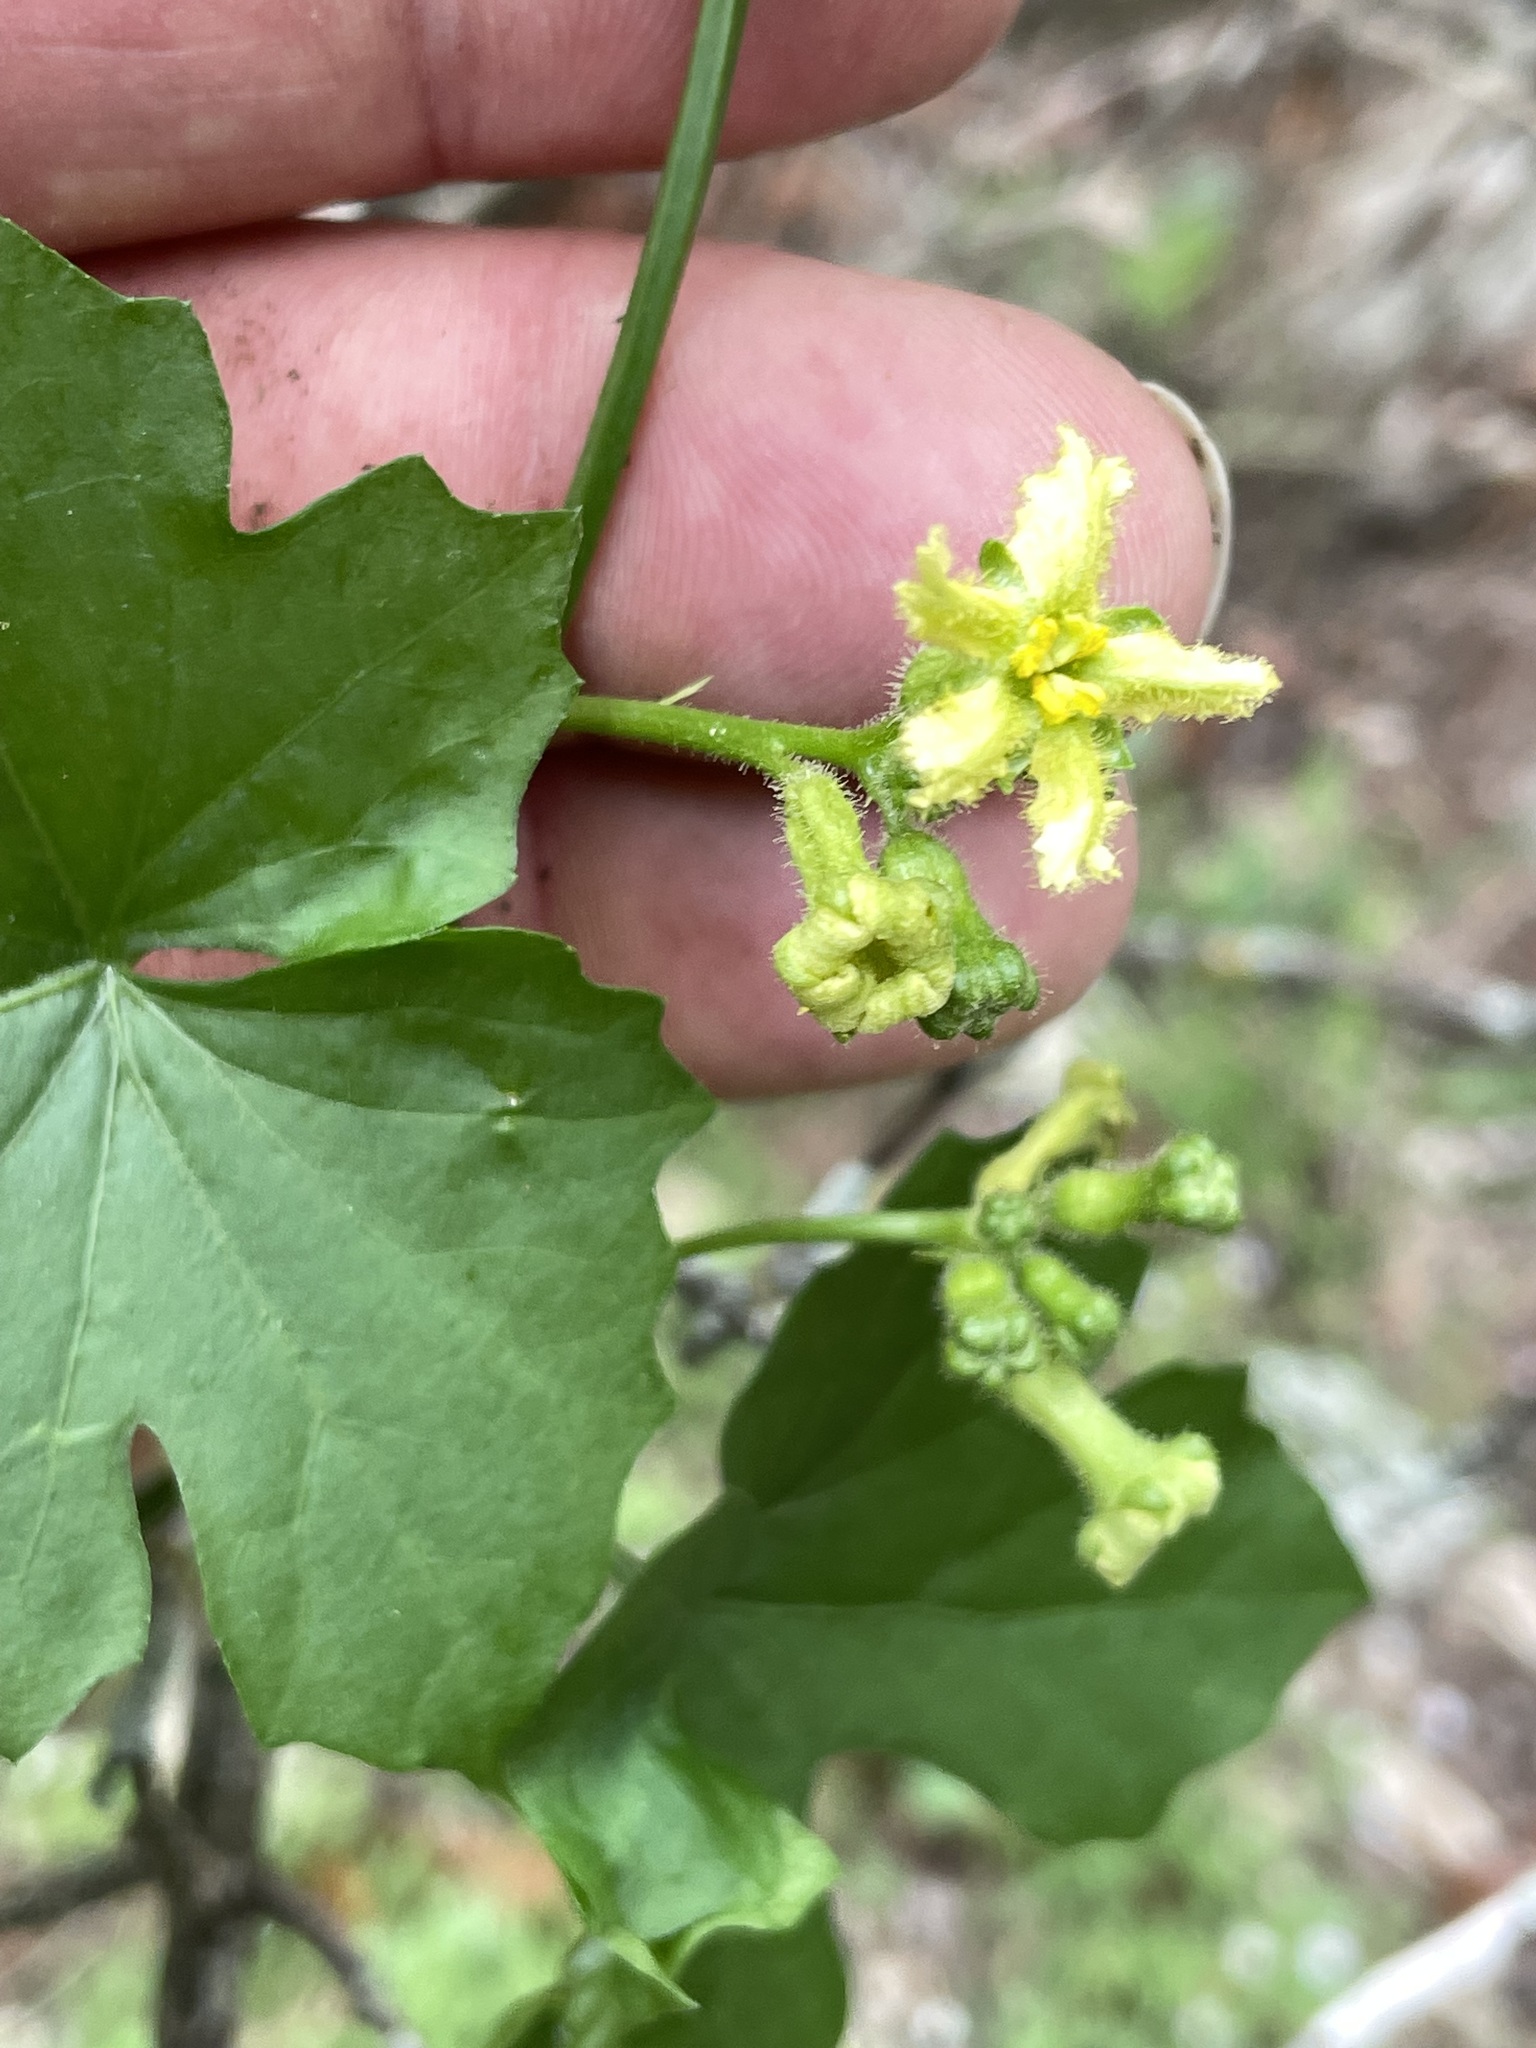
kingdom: Plantae
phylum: Tracheophyta
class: Magnoliopsida
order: Cucurbitales
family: Cucurbitaceae
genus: Ibervillea
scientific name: Ibervillea lindheimeri
